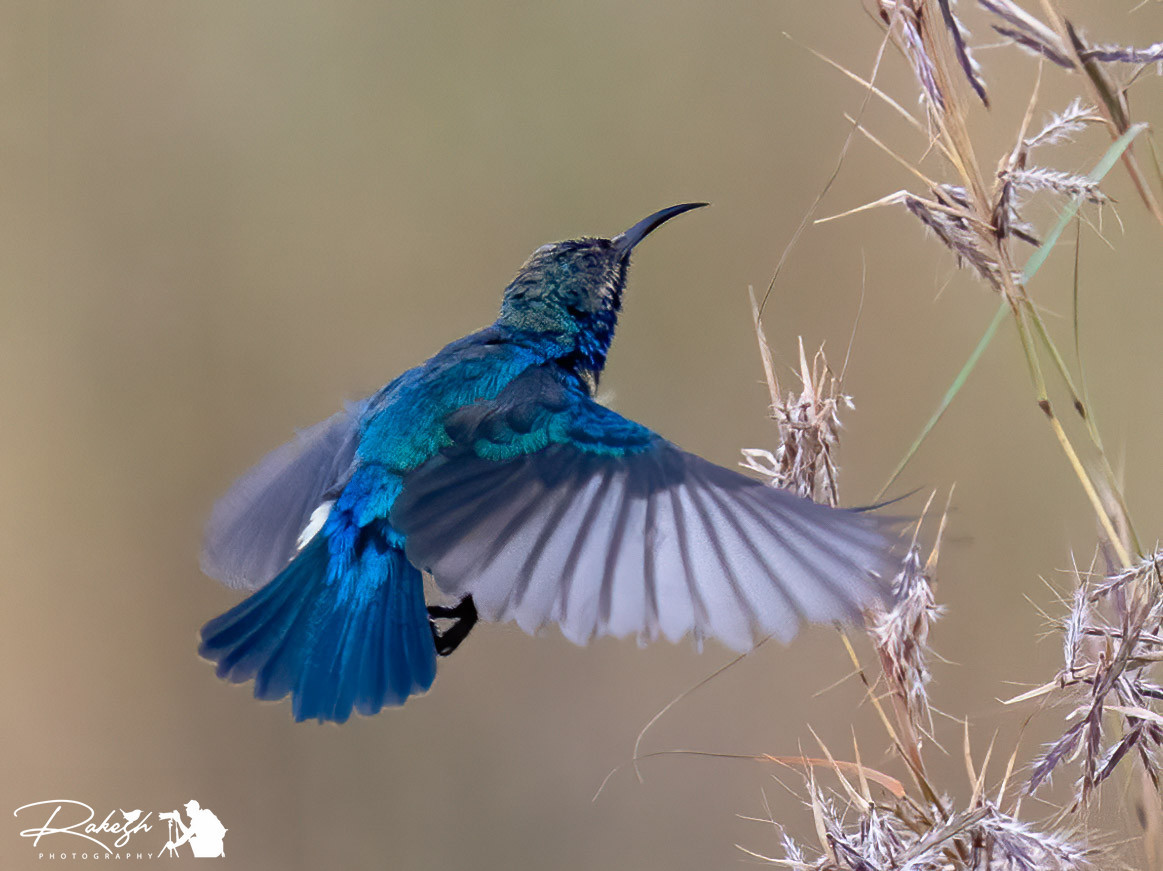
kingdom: Animalia
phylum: Chordata
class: Aves
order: Passeriformes
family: Nectariniidae
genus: Cinnyris
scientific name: Cinnyris venustus
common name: Variable sunbird
